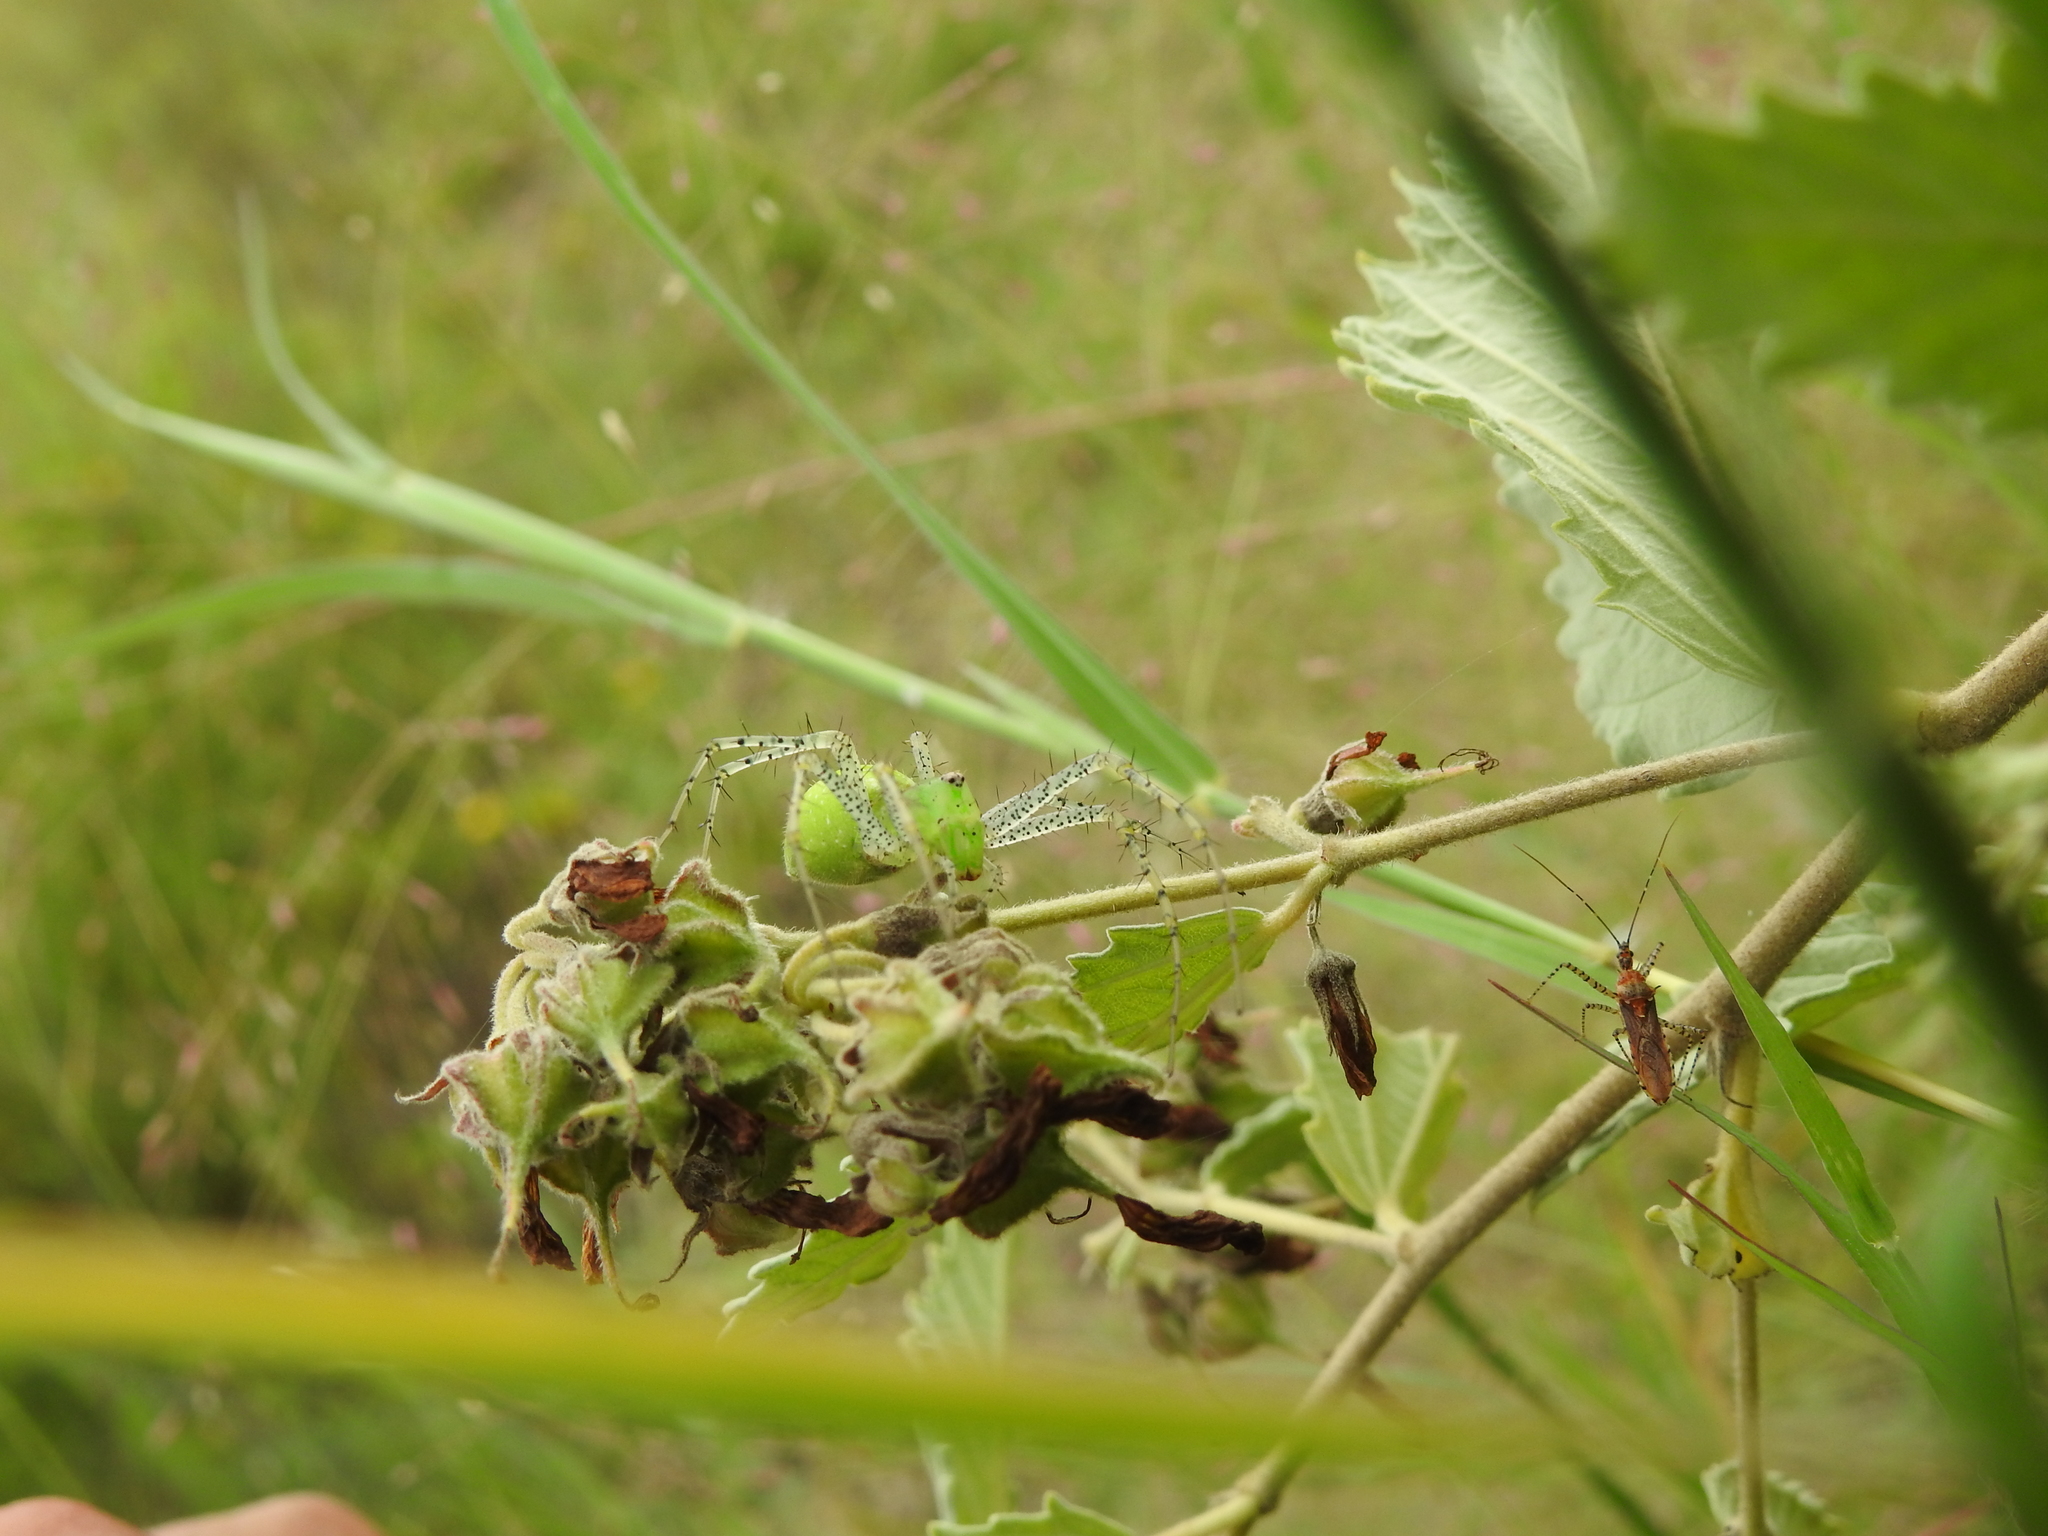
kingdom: Animalia
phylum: Arthropoda
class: Arachnida
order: Araneae
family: Oxyopidae
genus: Peucetia
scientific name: Peucetia viridans
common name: Lynx spiders
